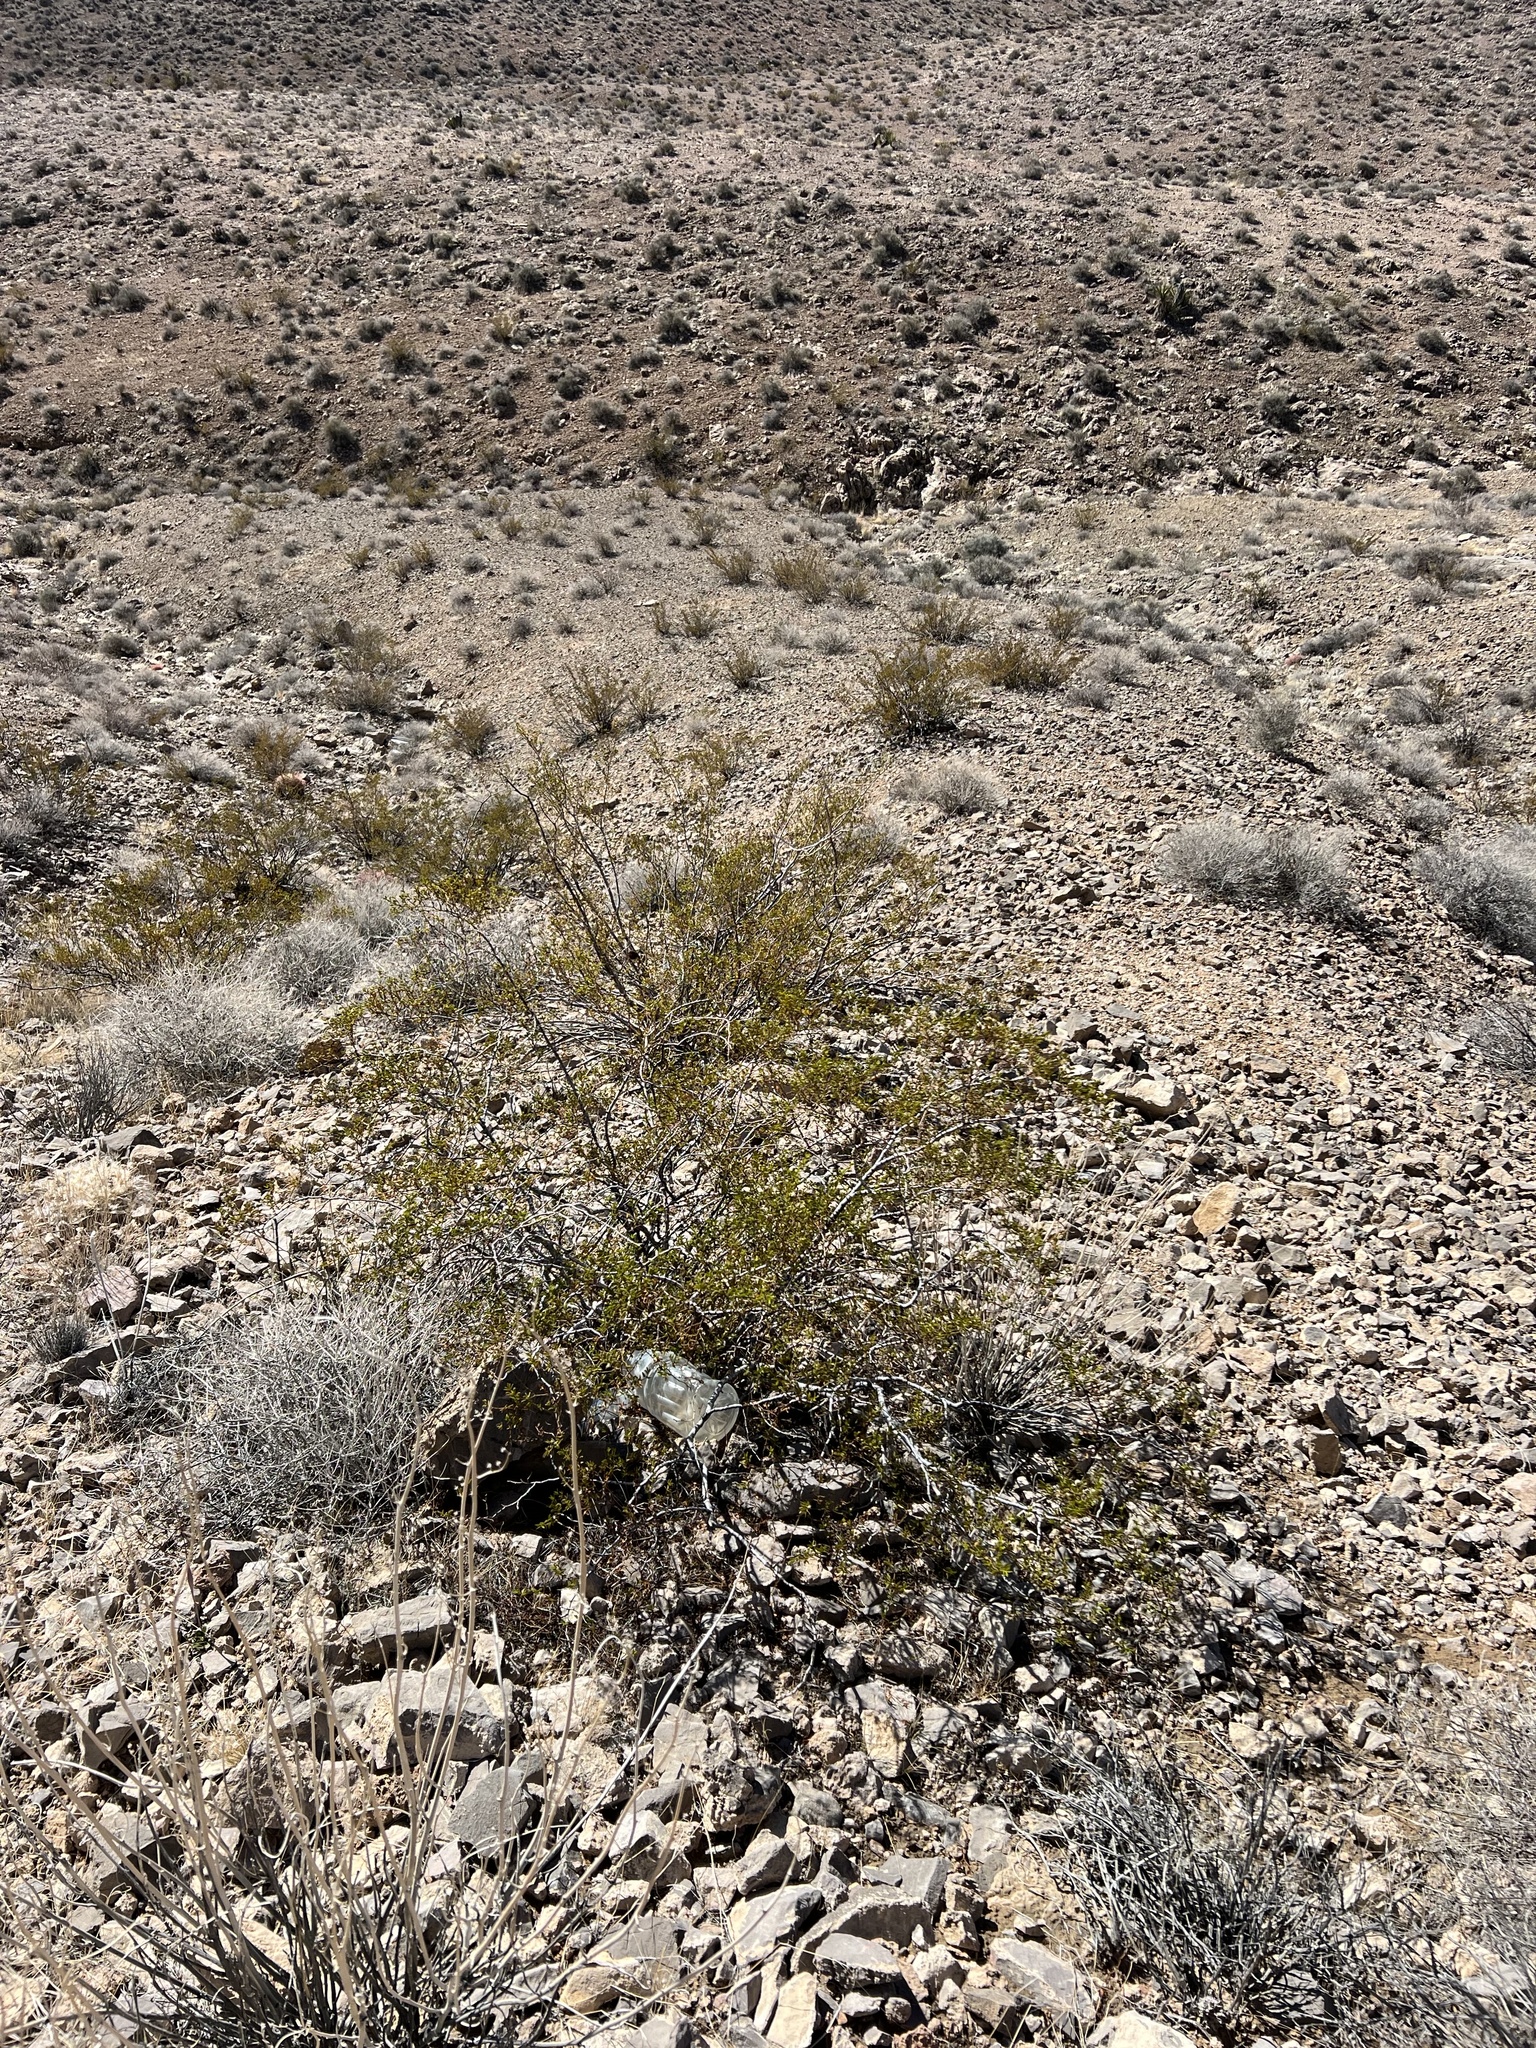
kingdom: Plantae
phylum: Tracheophyta
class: Magnoliopsida
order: Zygophyllales
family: Zygophyllaceae
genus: Larrea
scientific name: Larrea tridentata
